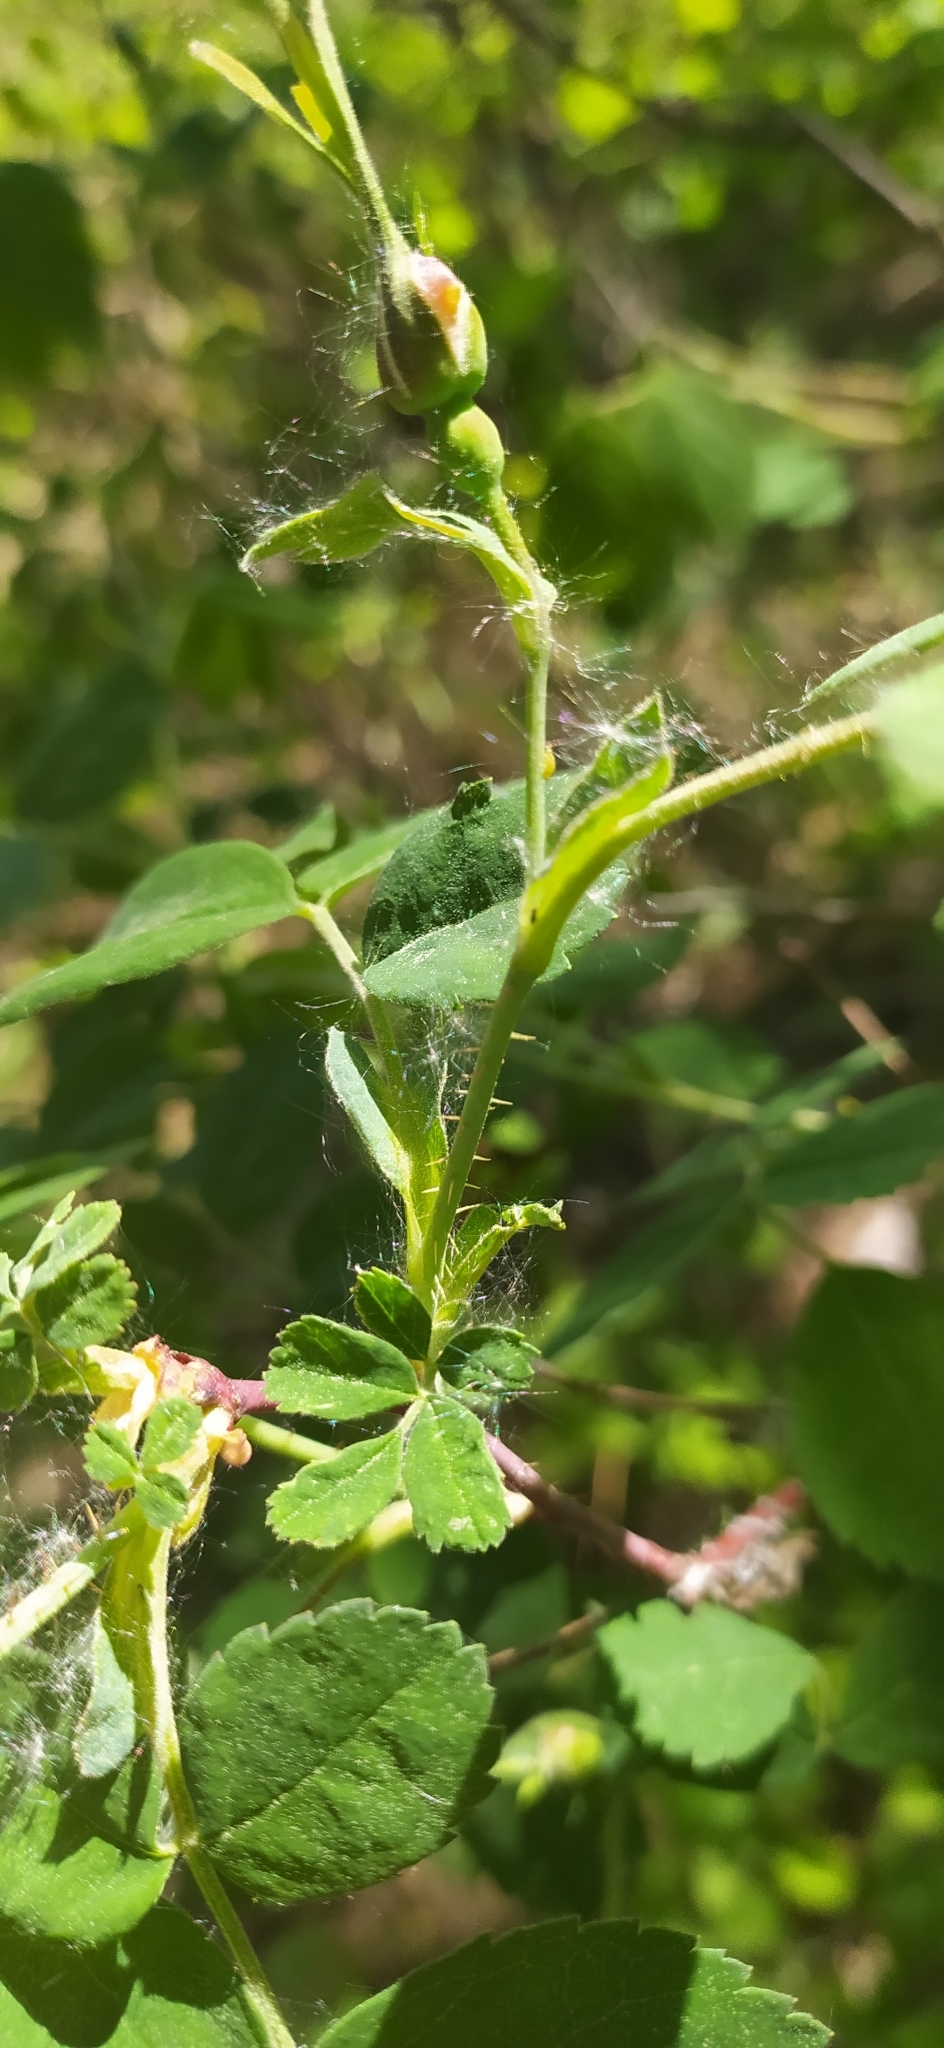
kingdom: Plantae
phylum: Tracheophyta
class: Magnoliopsida
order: Rosales
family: Rosaceae
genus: Rosa
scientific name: Rosa acicularis
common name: Prickly rose
